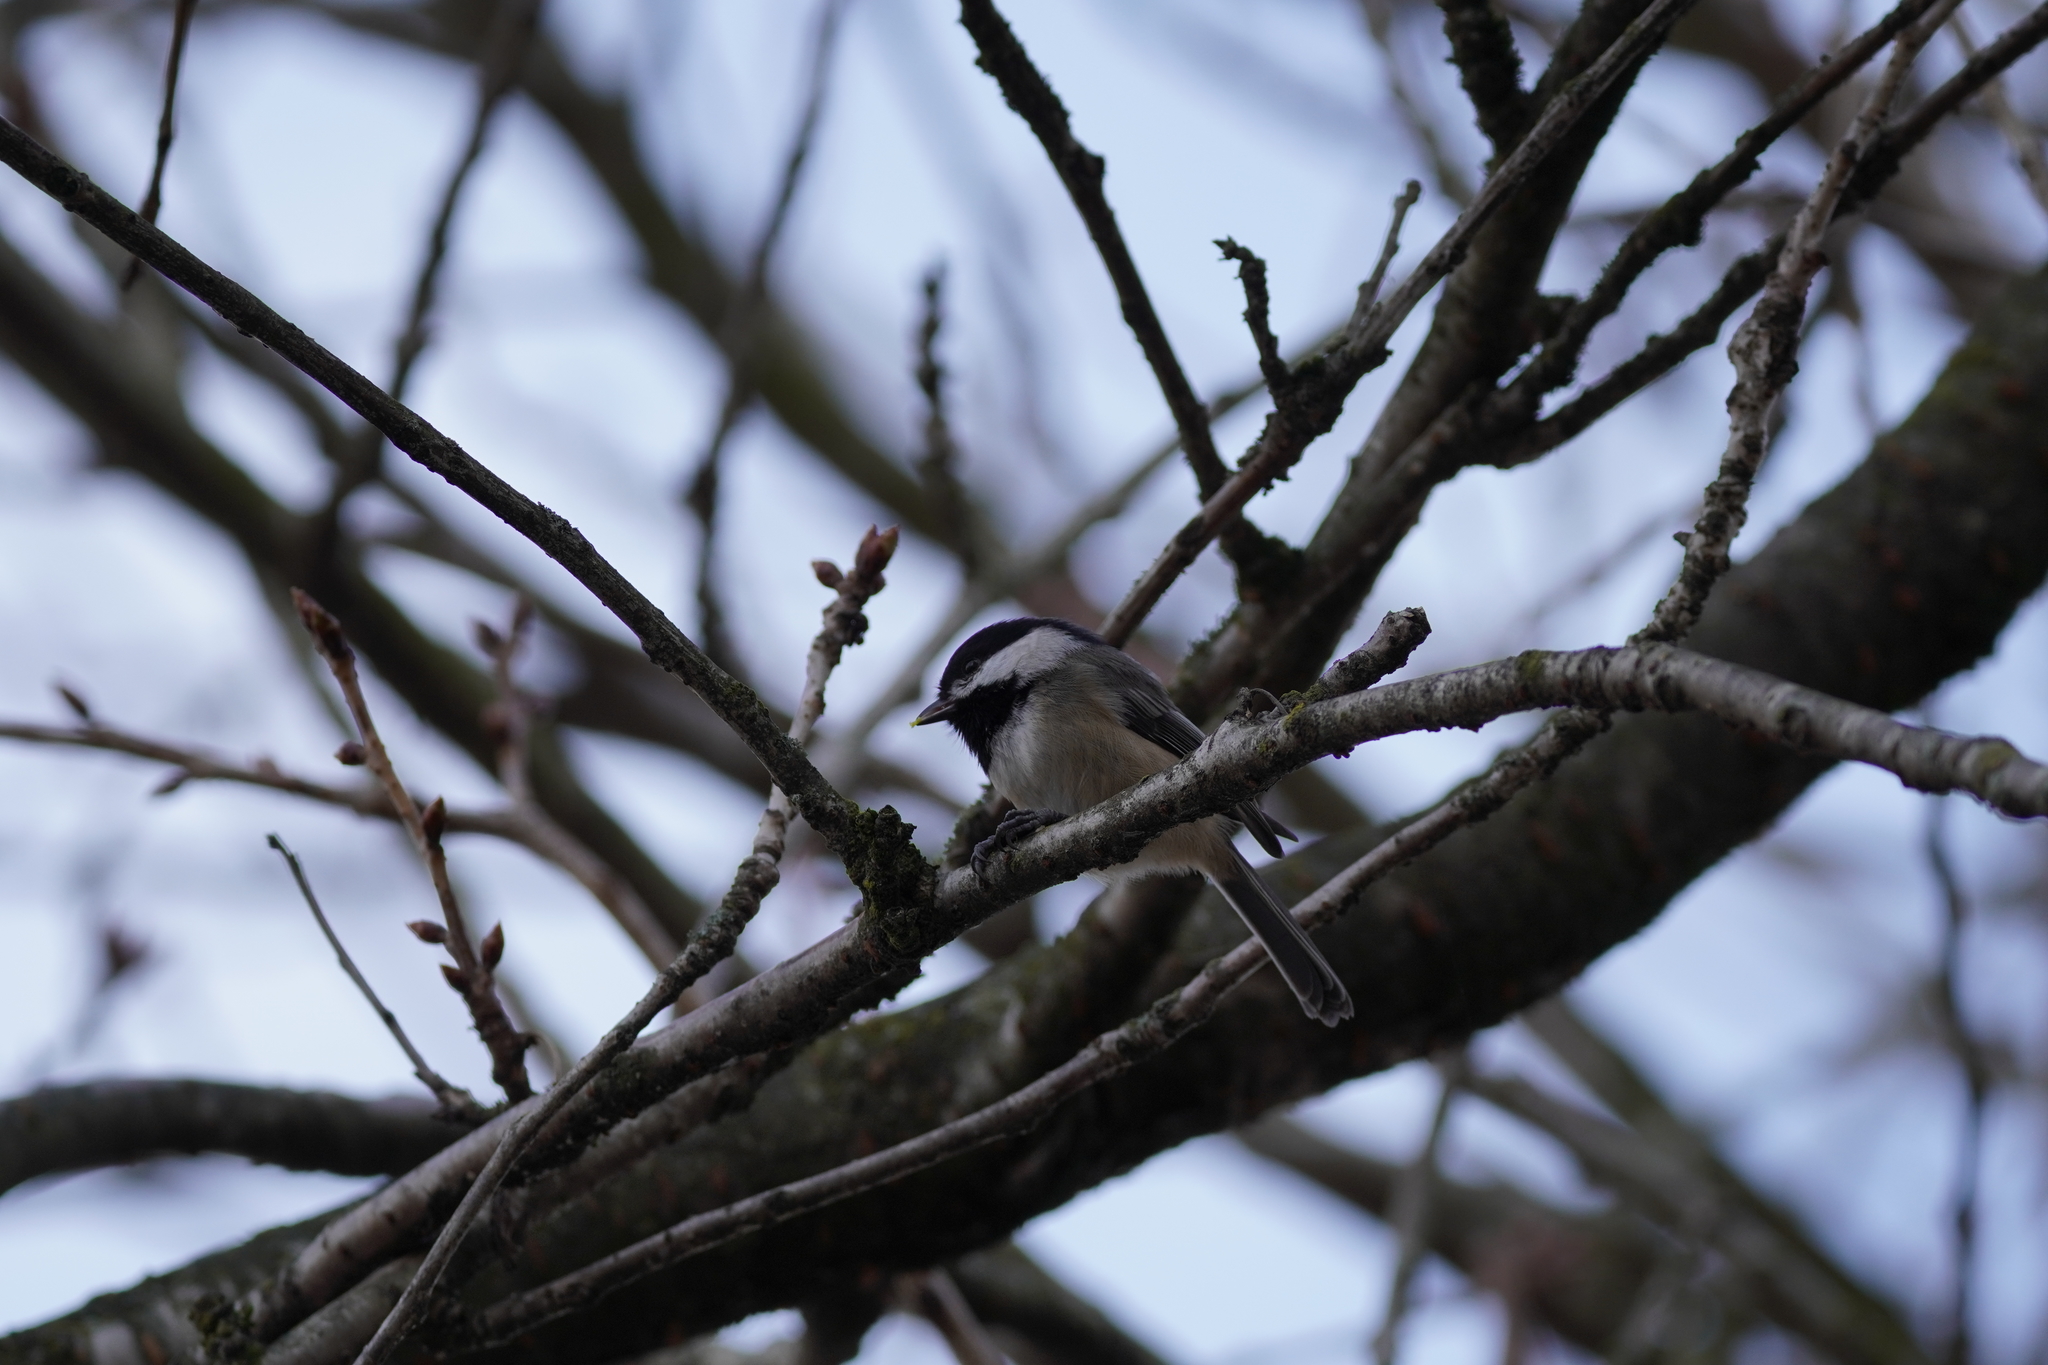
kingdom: Animalia
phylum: Chordata
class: Aves
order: Passeriformes
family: Paridae
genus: Poecile
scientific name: Poecile atricapillus
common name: Black-capped chickadee
